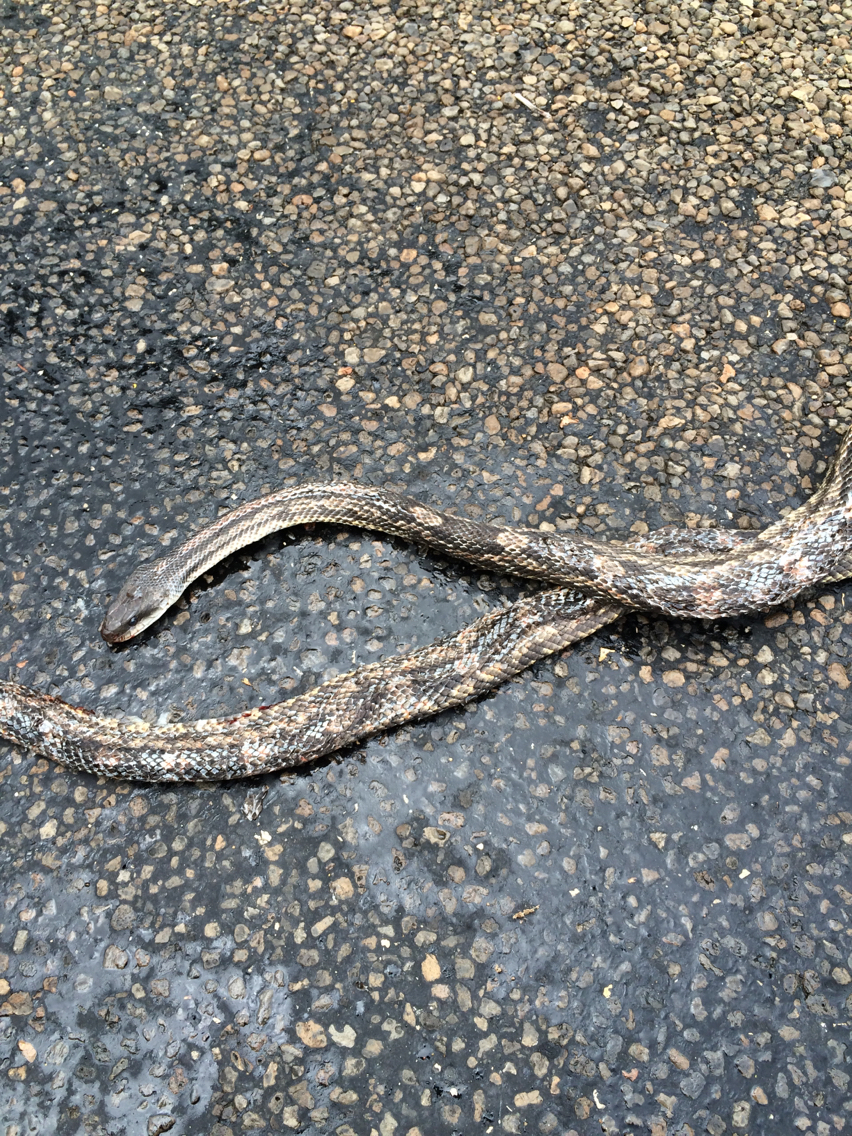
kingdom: Animalia
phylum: Chordata
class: Squamata
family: Colubridae
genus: Pantherophis
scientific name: Pantherophis obsoletus
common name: Black rat snake
